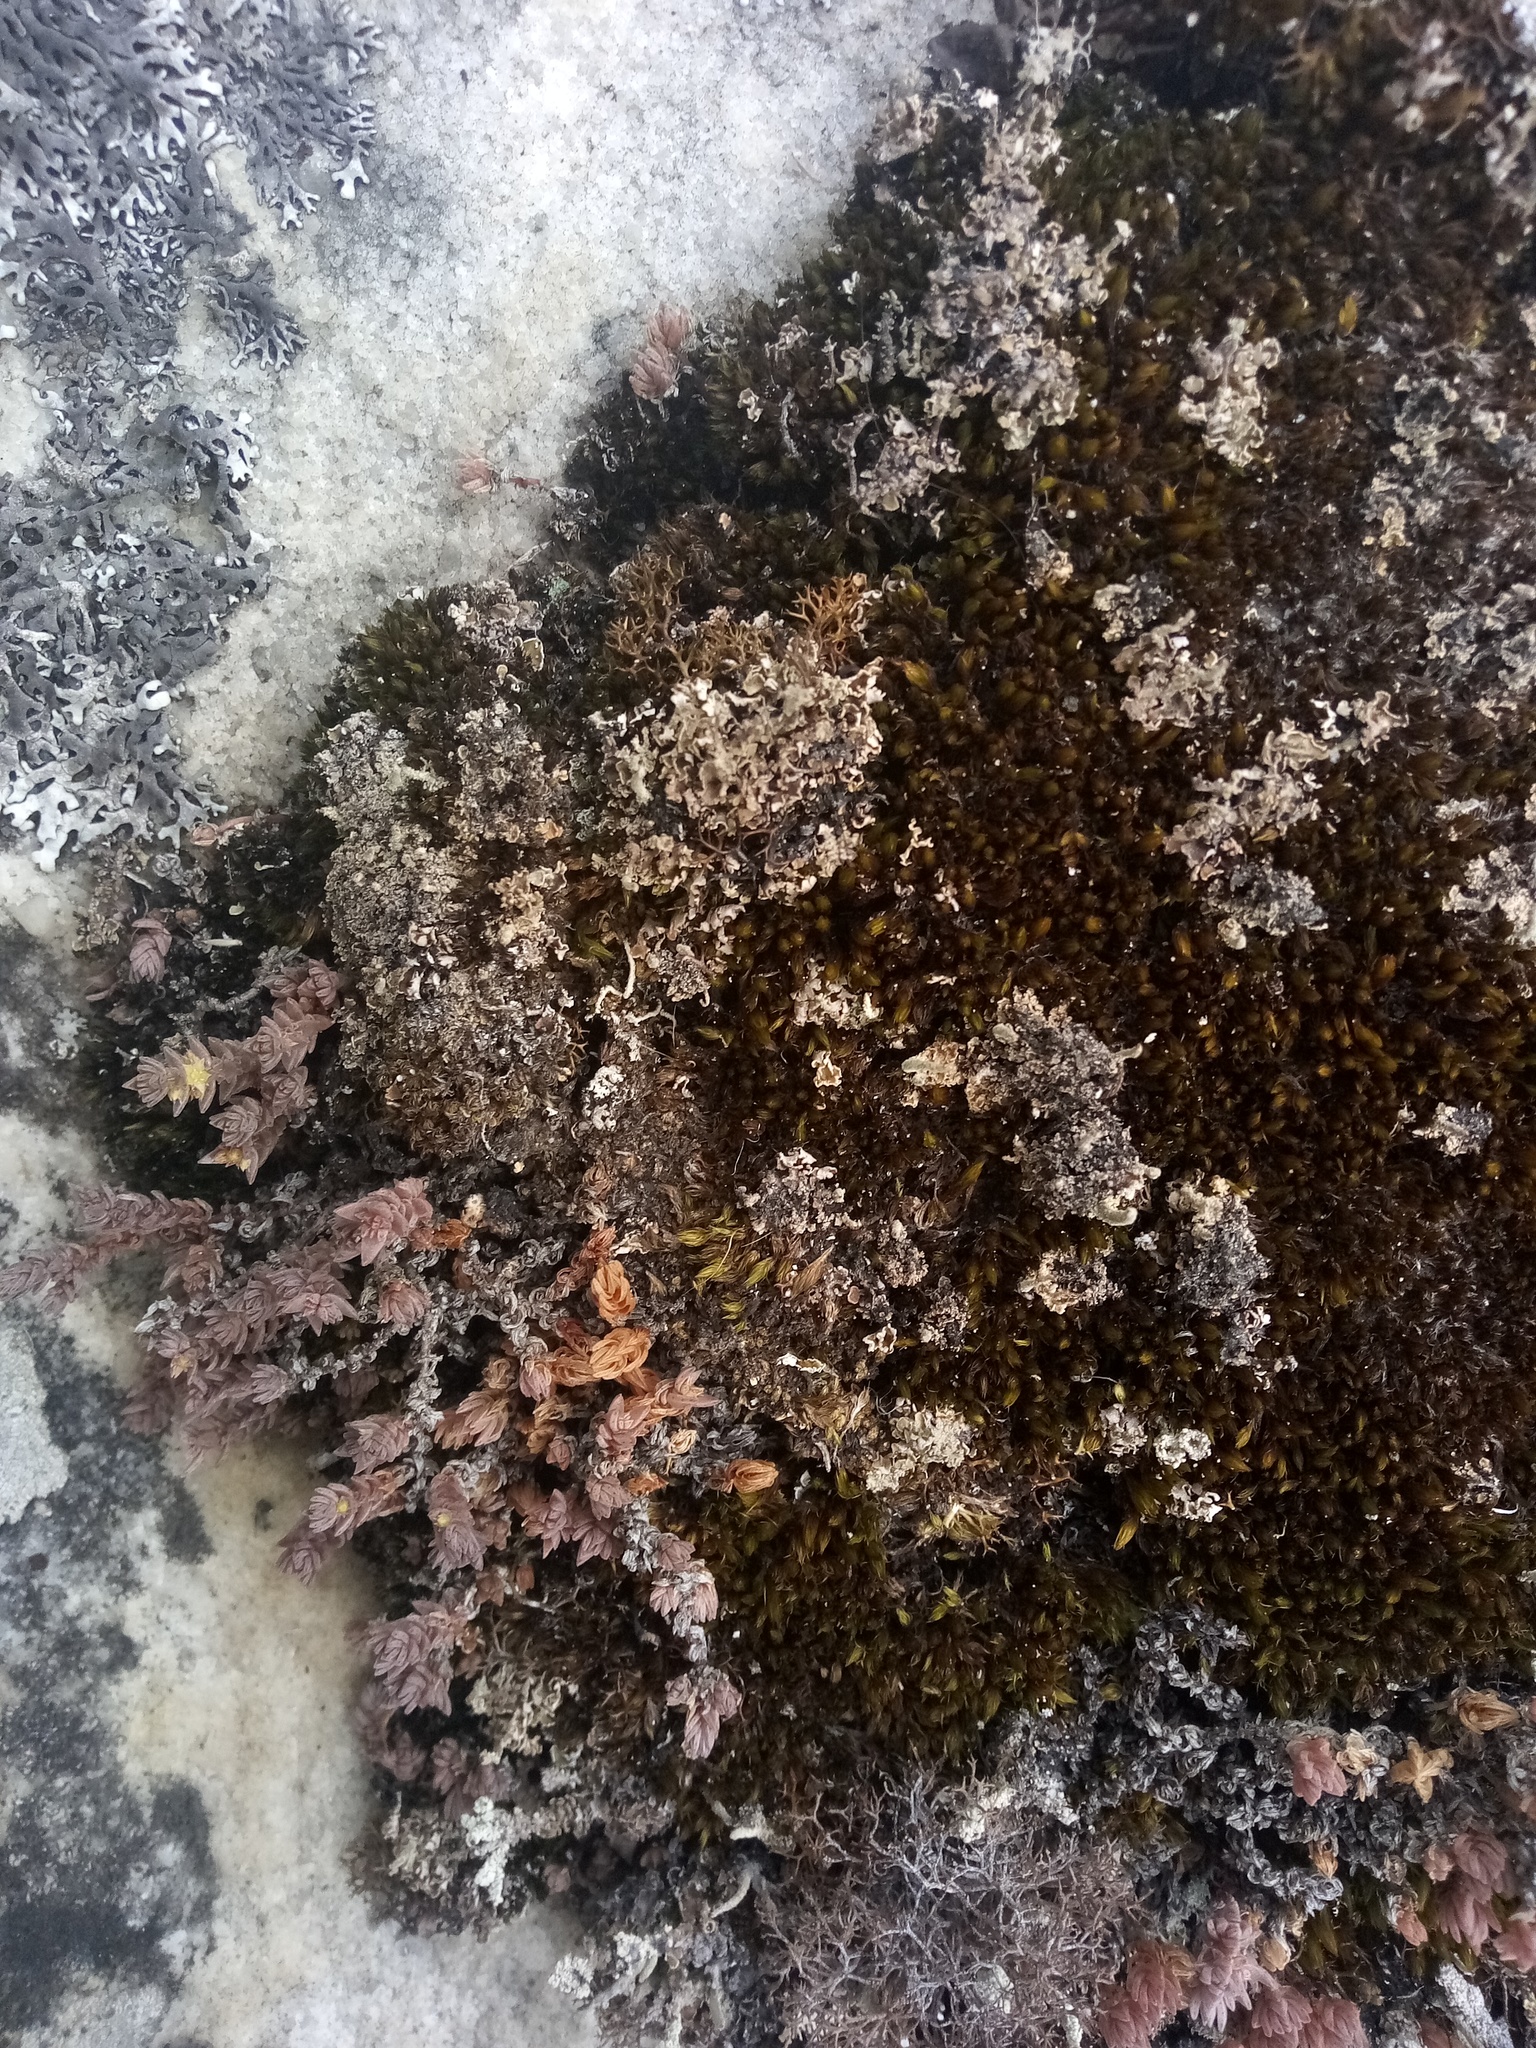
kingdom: Plantae
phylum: Tracheophyta
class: Magnoliopsida
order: Saxifragales
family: Crassulaceae
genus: Crassula
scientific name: Crassula lanceolata
